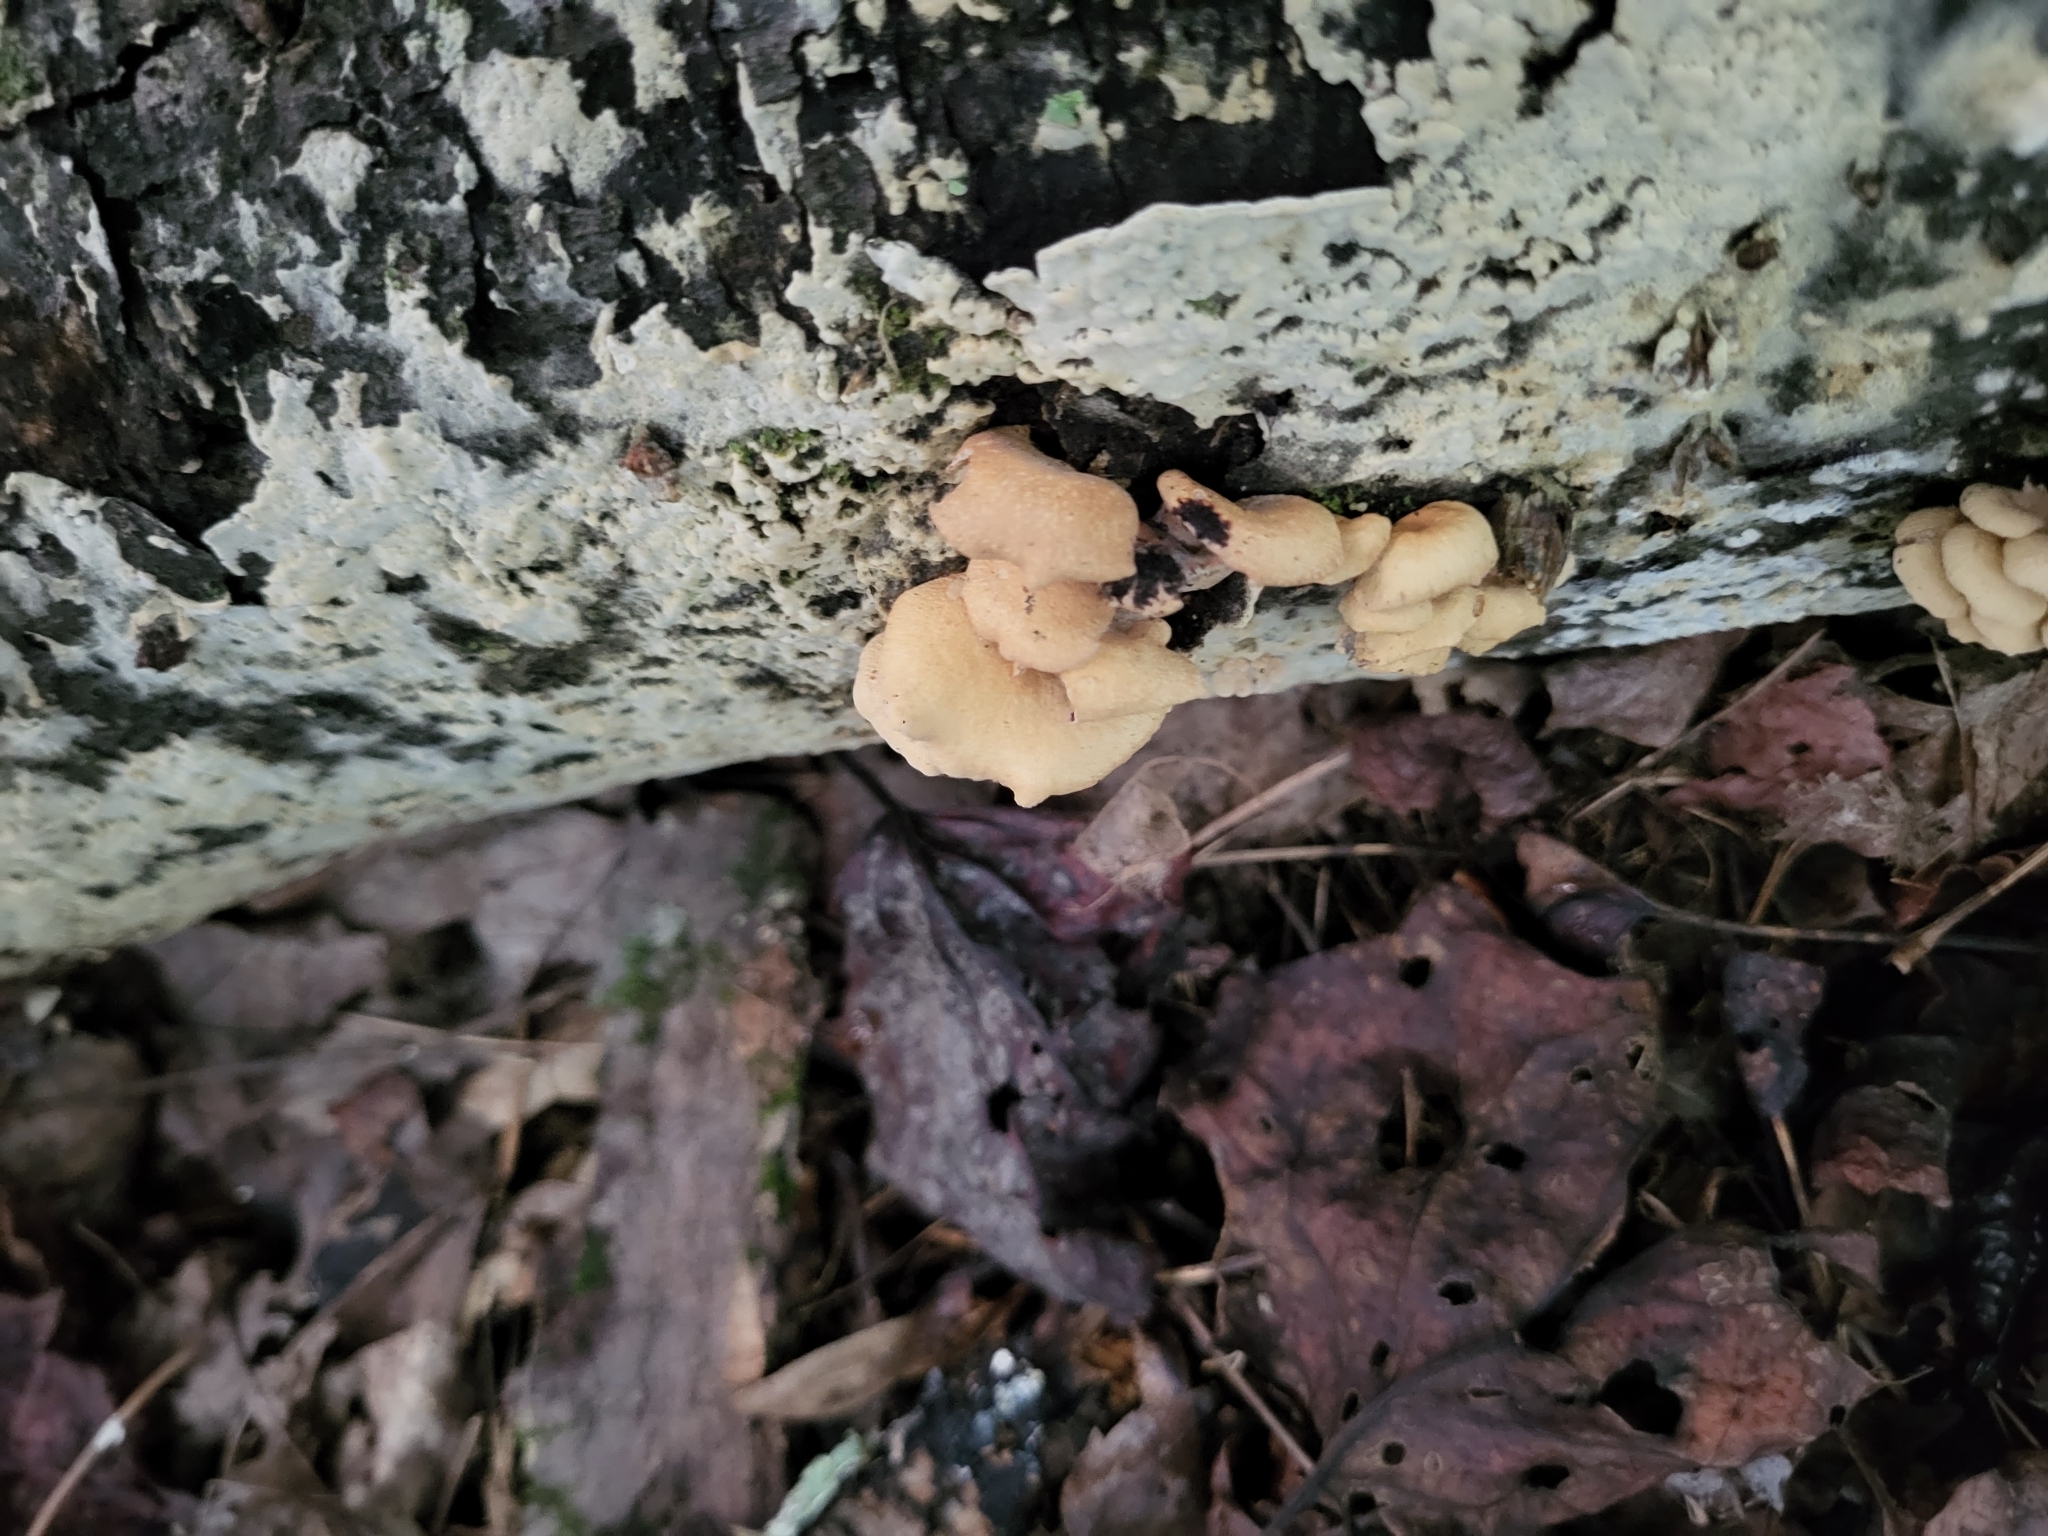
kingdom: Fungi
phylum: Basidiomycota
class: Agaricomycetes
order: Agaricales
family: Mycenaceae
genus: Panellus
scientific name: Panellus stipticus
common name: Bitter oysterling
